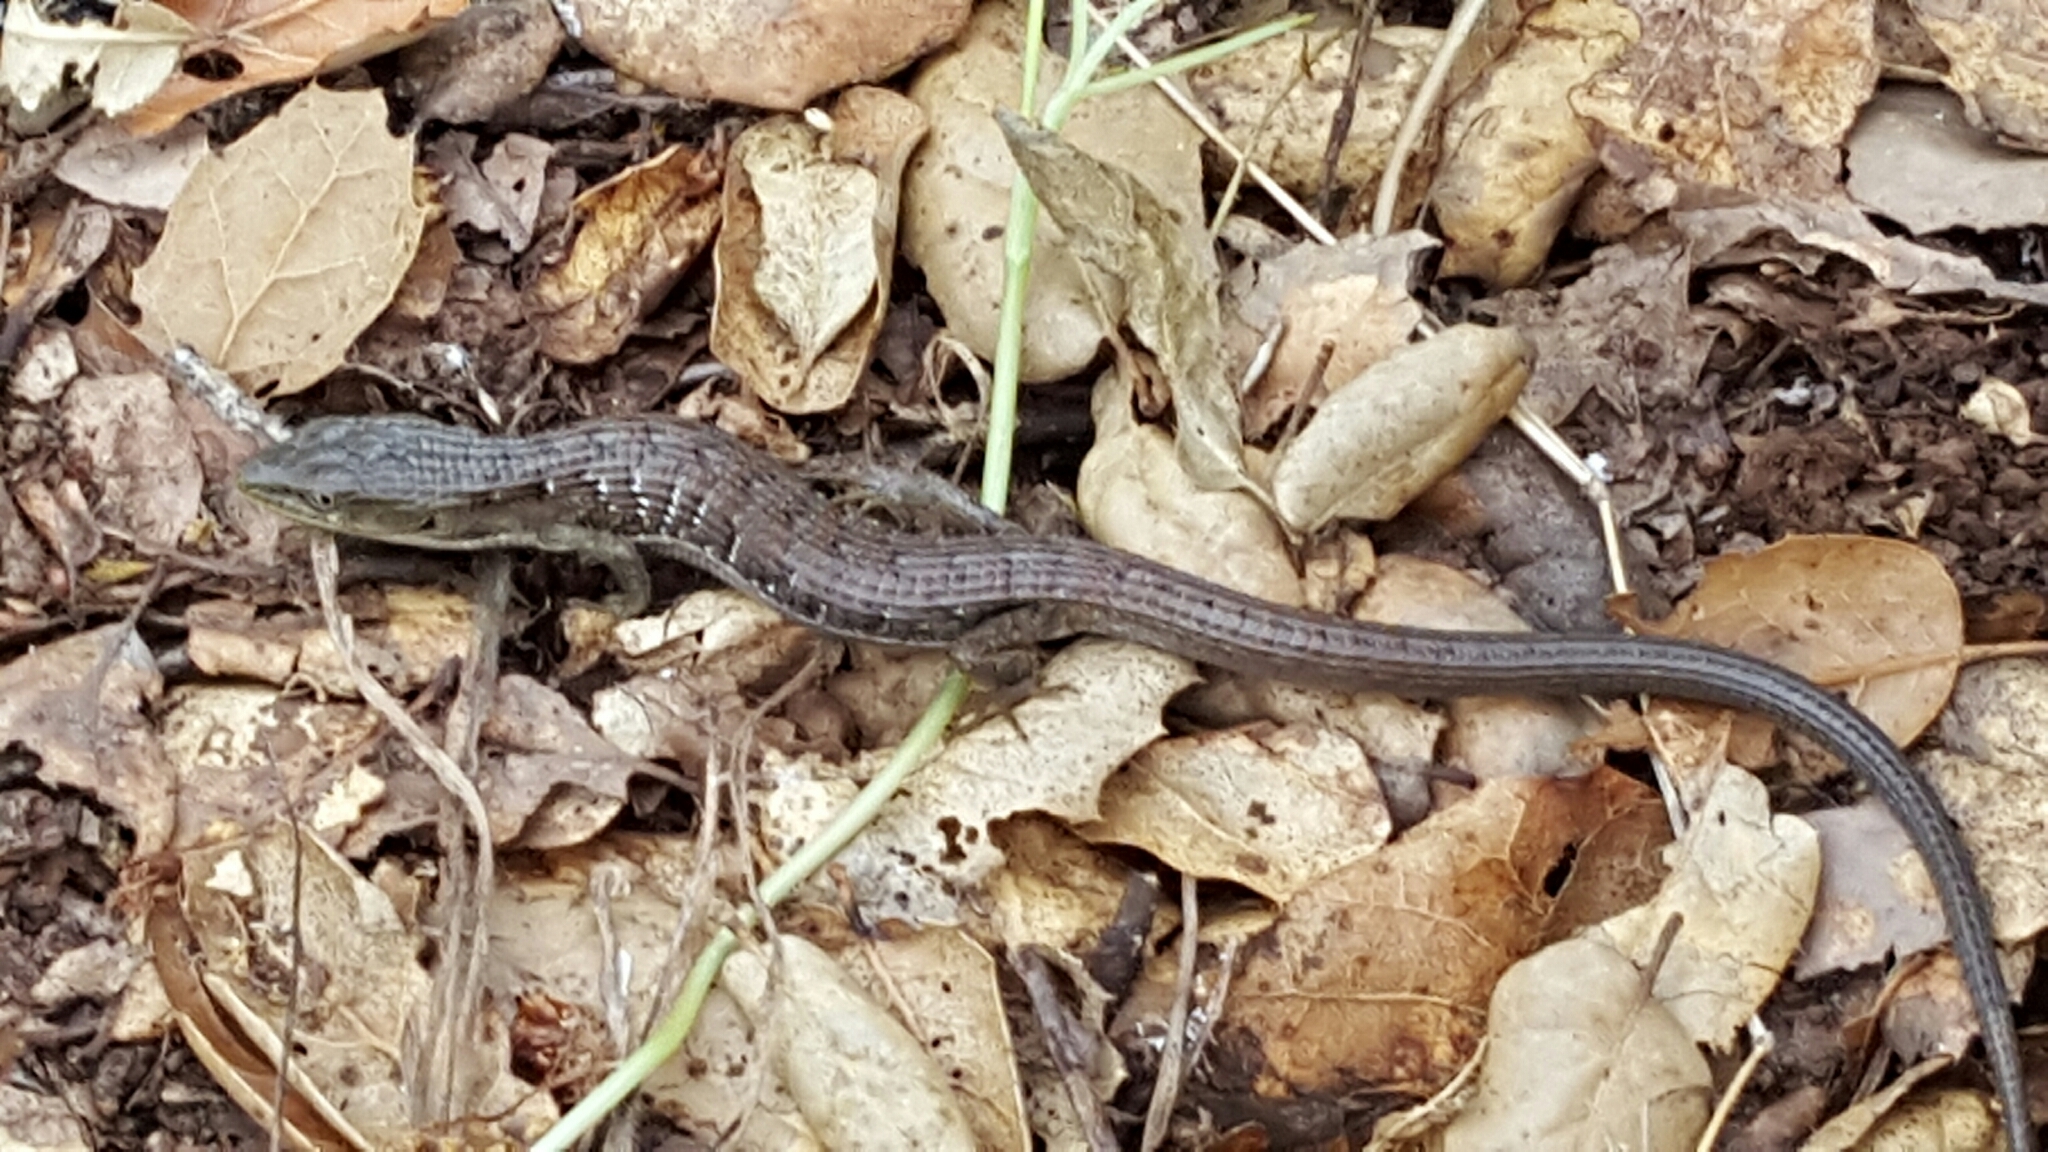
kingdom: Animalia
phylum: Chordata
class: Squamata
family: Anguidae
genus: Elgaria
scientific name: Elgaria multicarinata
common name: Southern alligator lizard
